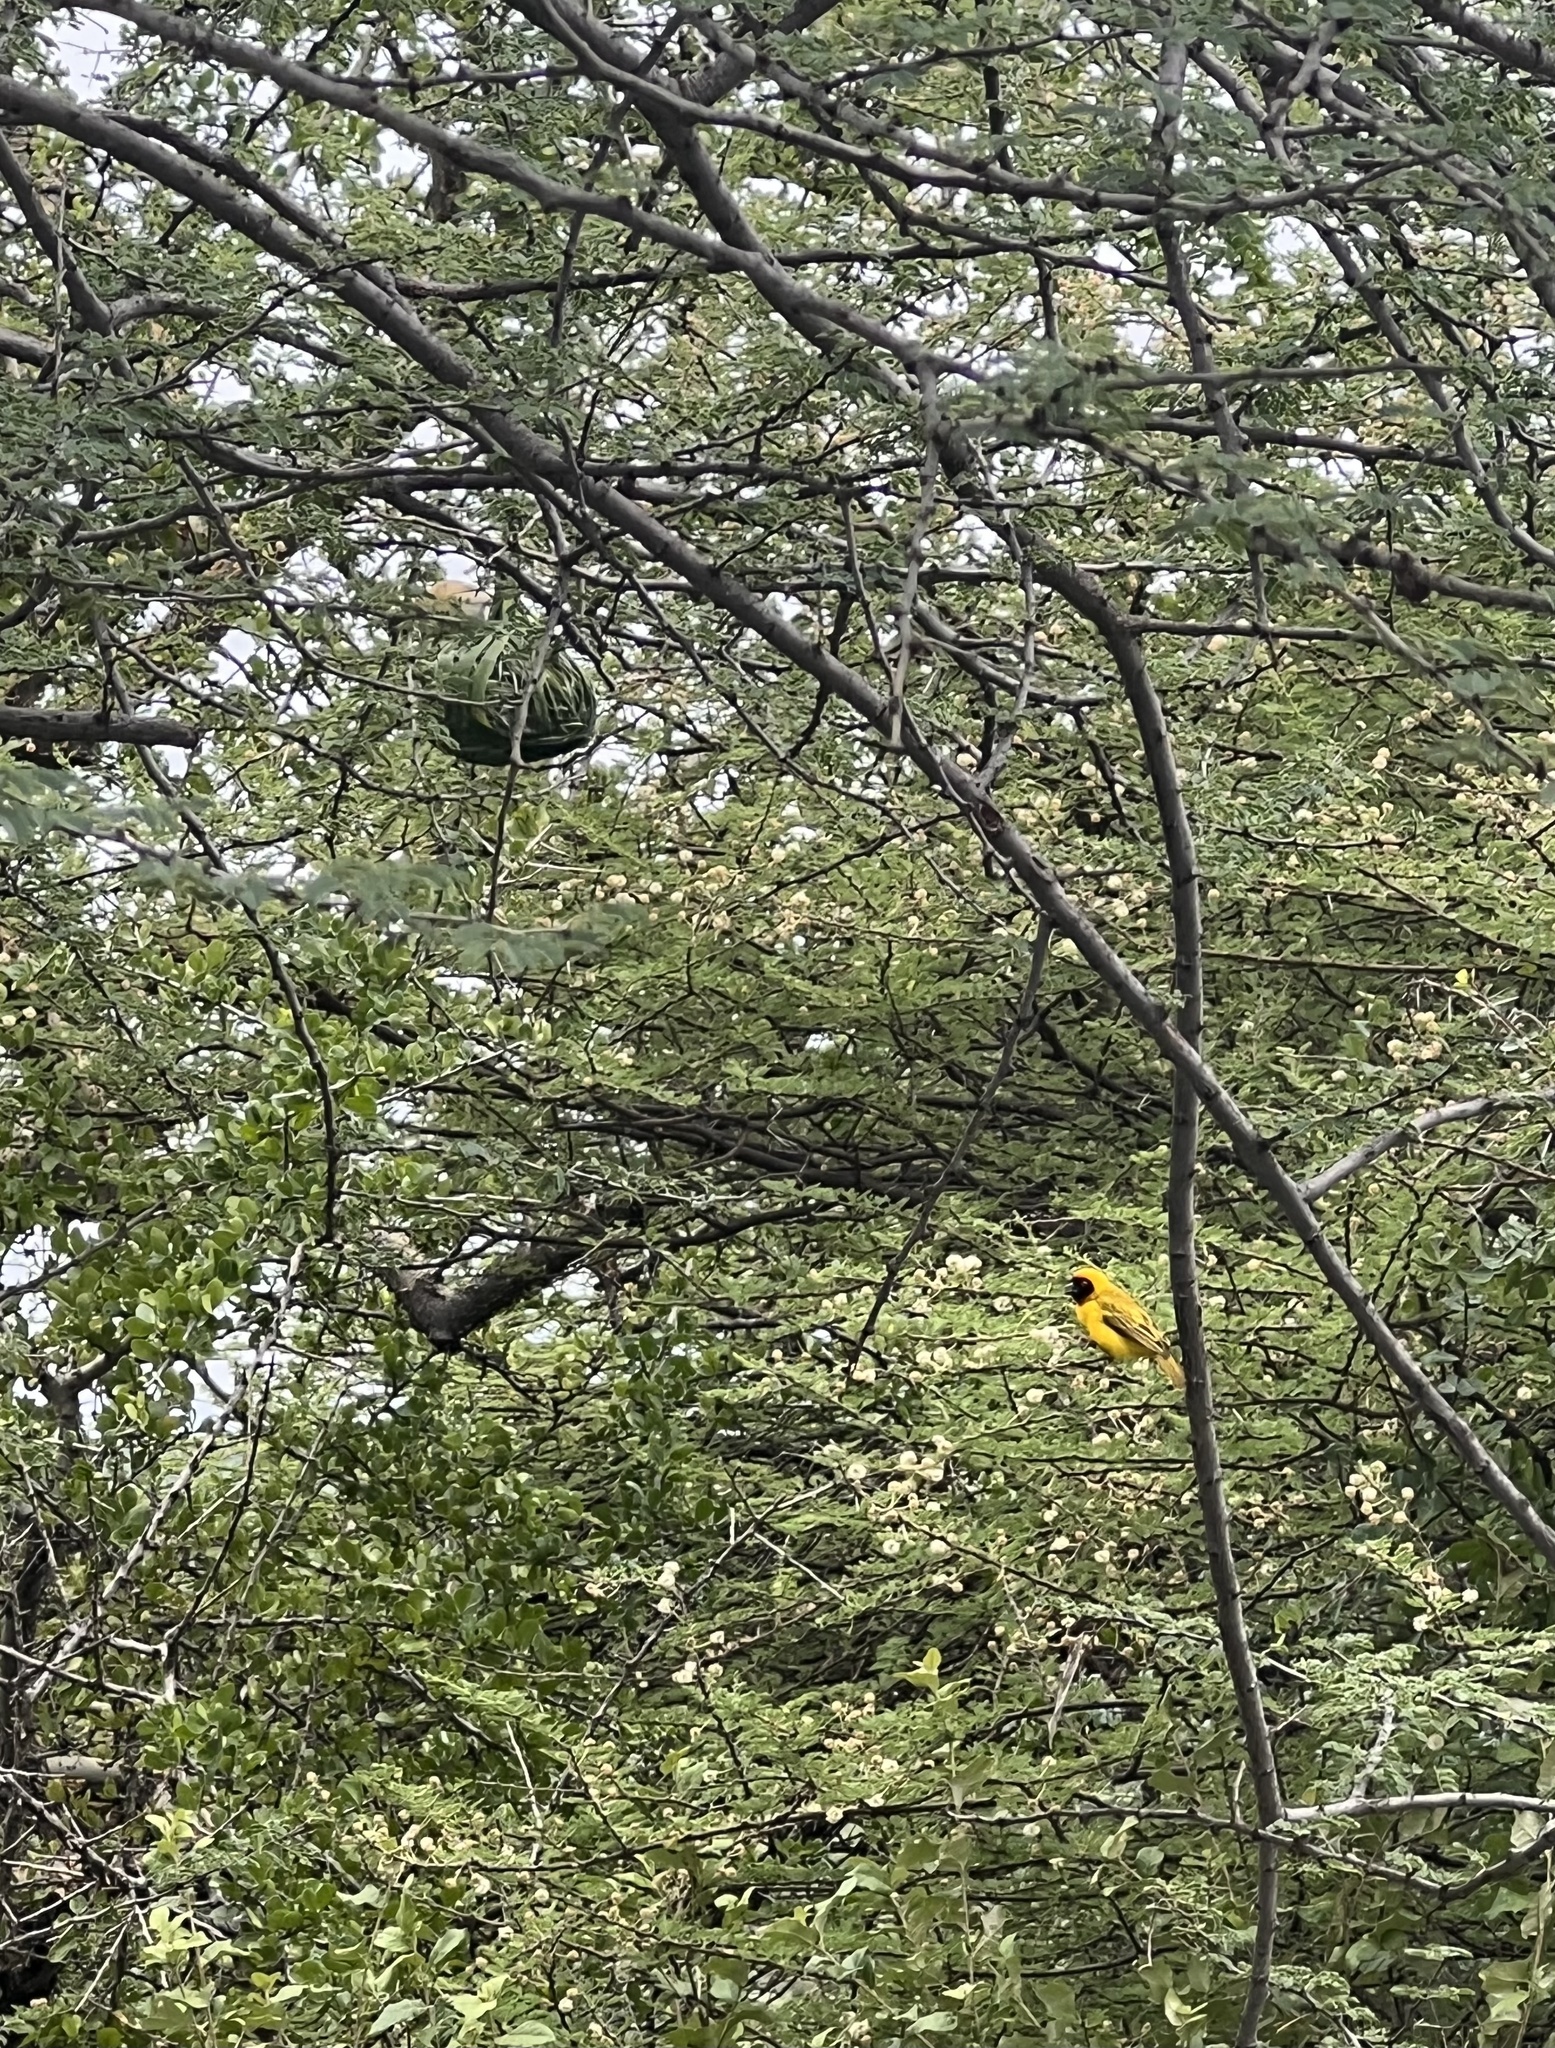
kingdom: Animalia
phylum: Chordata
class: Aves
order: Passeriformes
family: Ploceidae
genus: Ploceus
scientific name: Ploceus vitellinus
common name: Vitelline masked weaver
